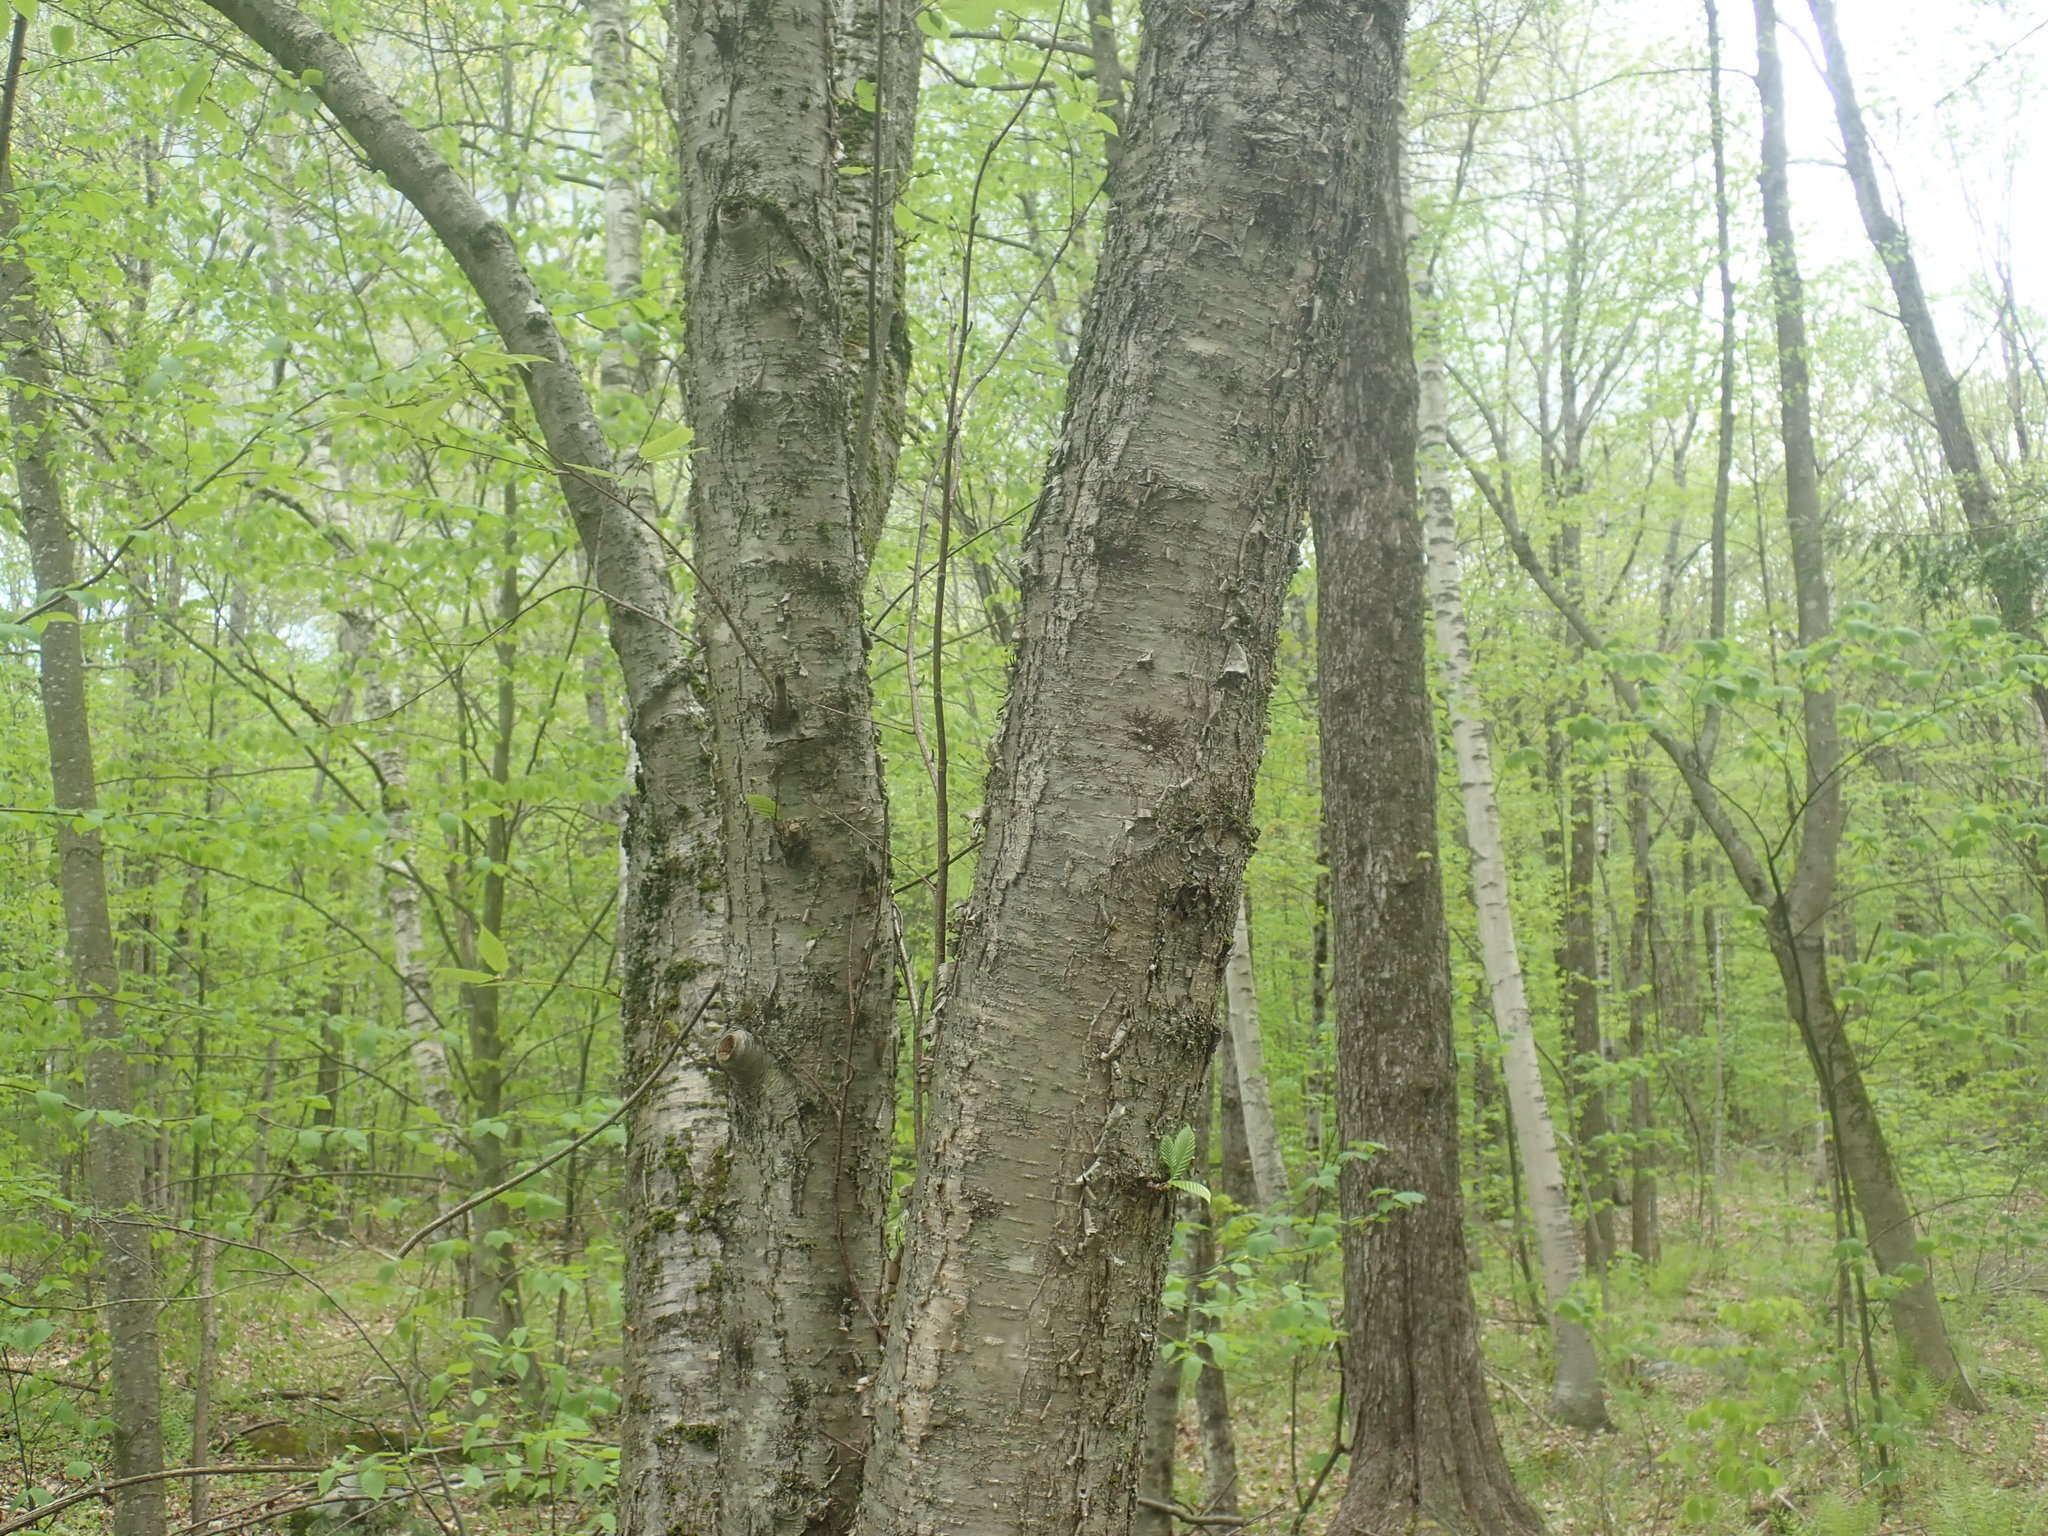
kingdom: Plantae
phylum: Tracheophyta
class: Magnoliopsida
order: Fagales
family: Betulaceae
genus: Betula
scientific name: Betula alleghaniensis
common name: Yellow birch
